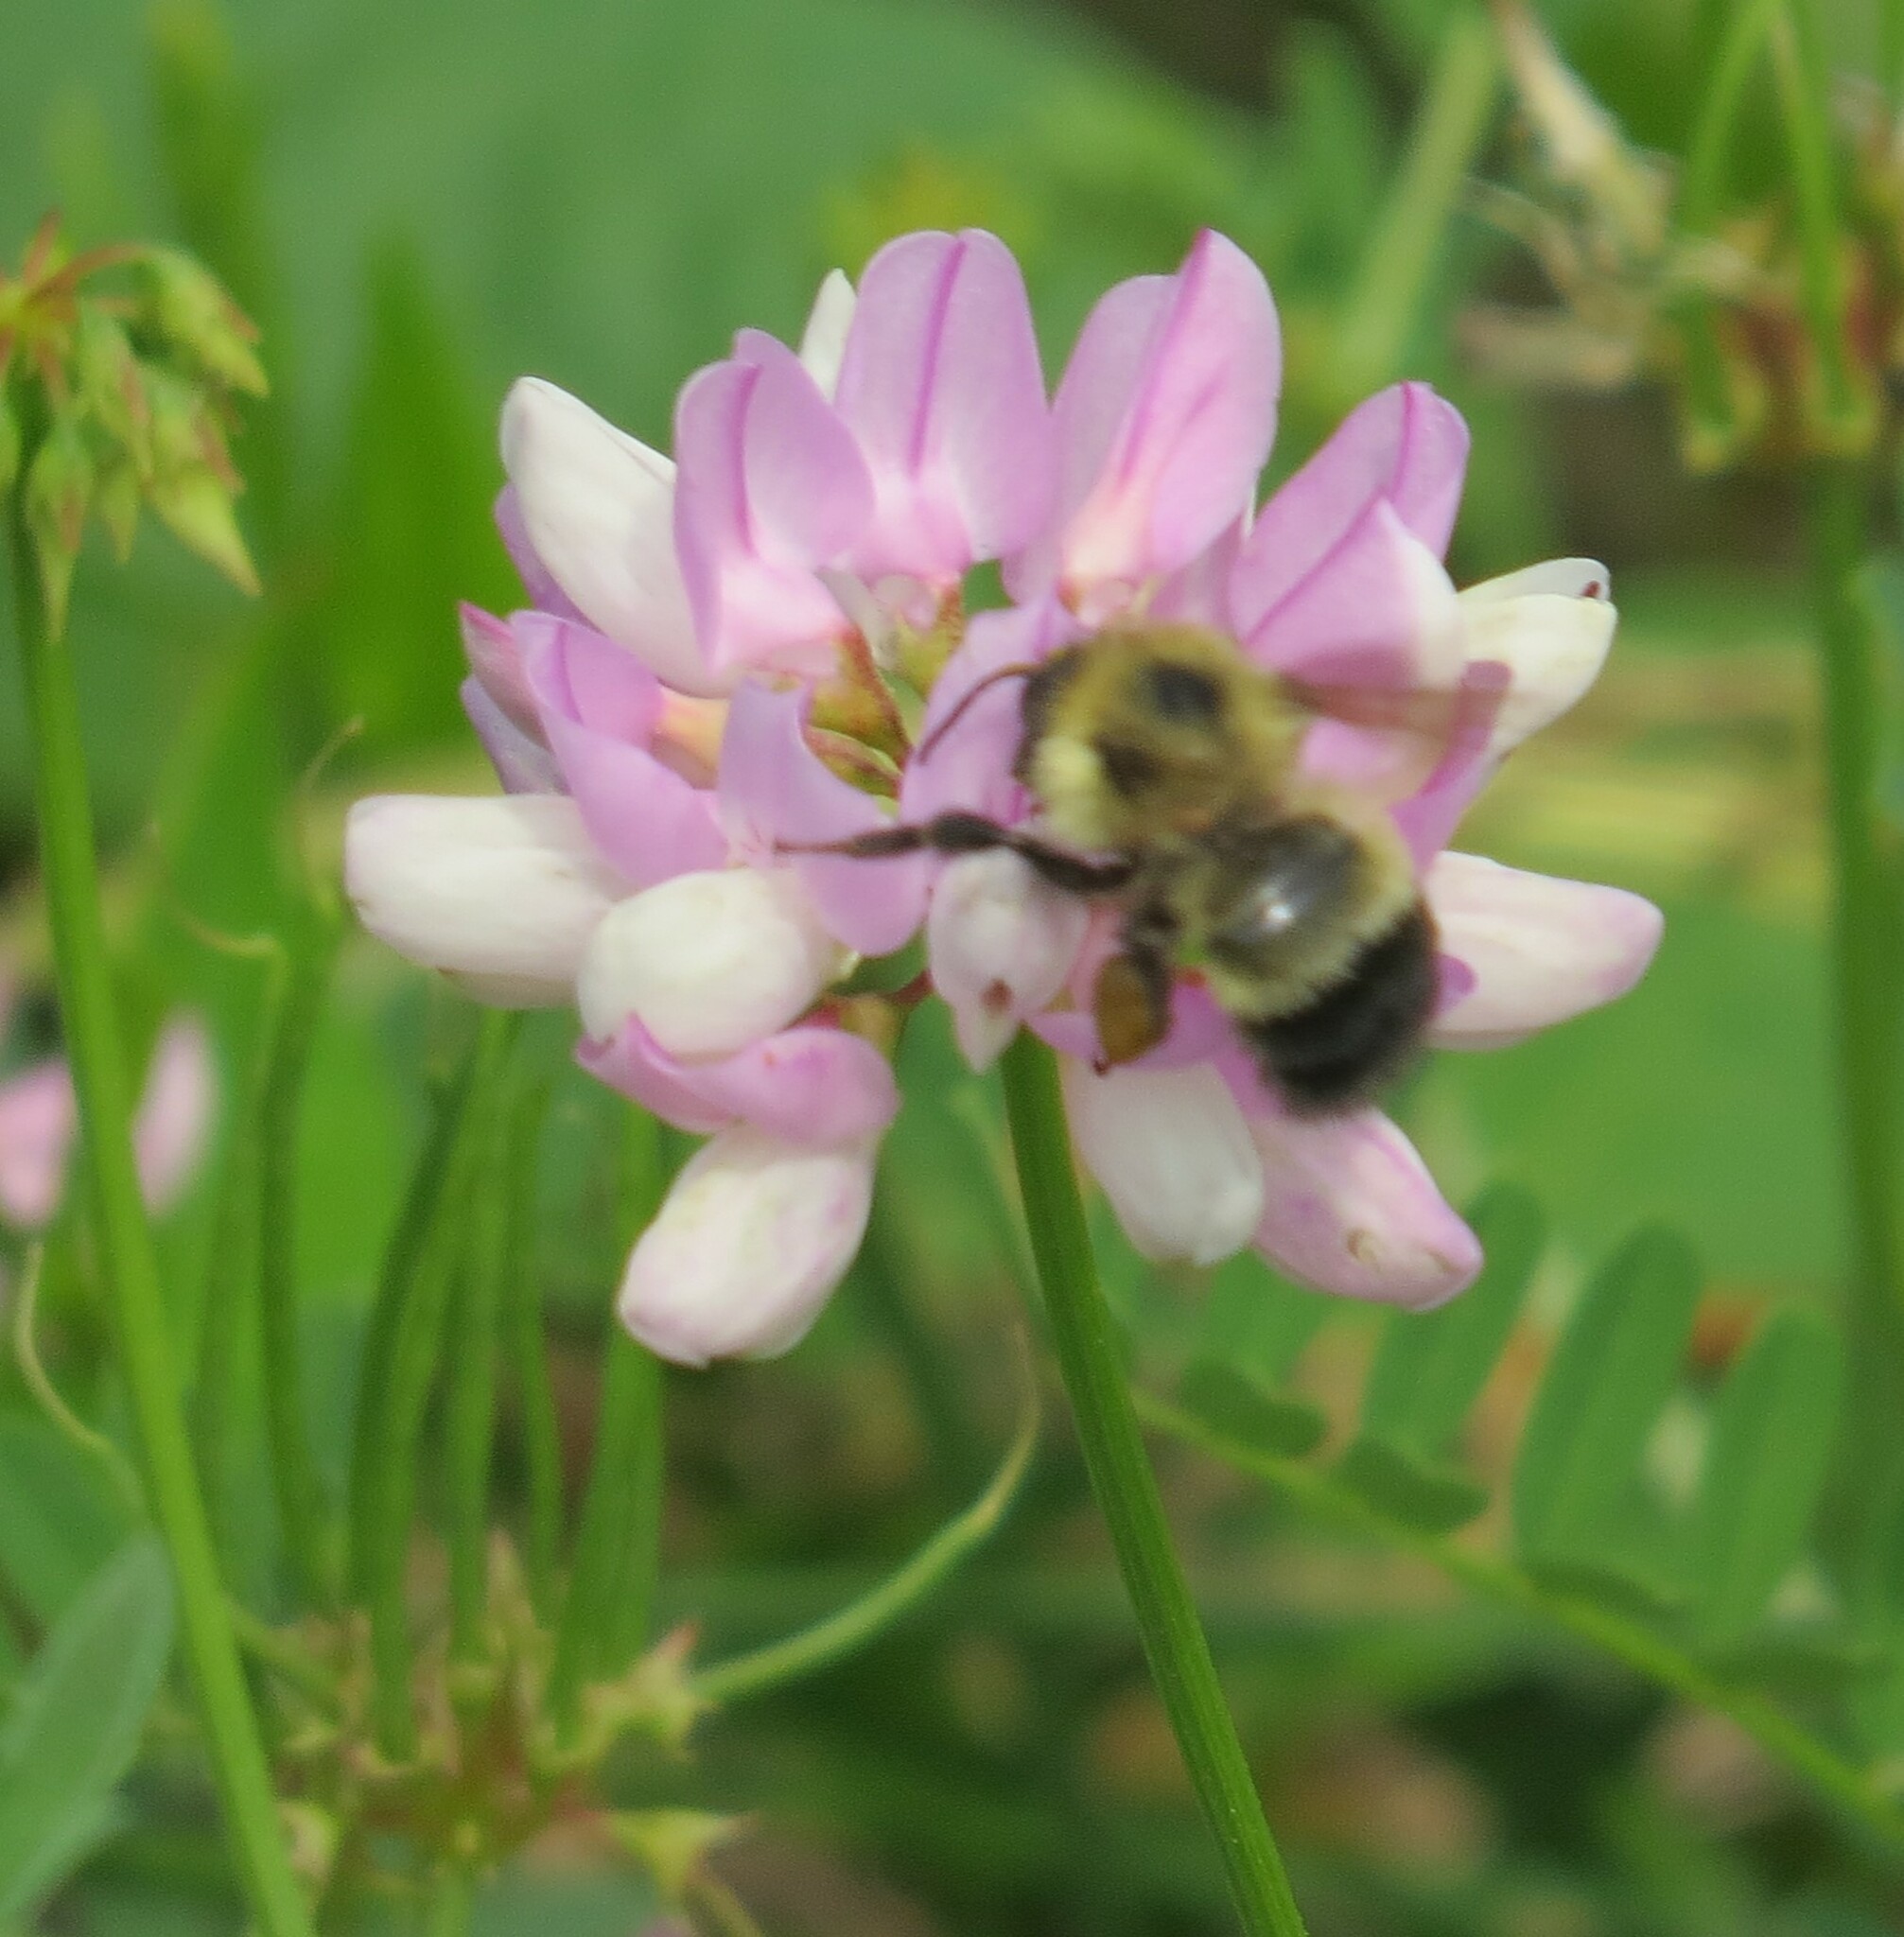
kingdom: Animalia
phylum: Arthropoda
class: Insecta
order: Hymenoptera
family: Apidae
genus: Pyrobombus
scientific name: Pyrobombus
